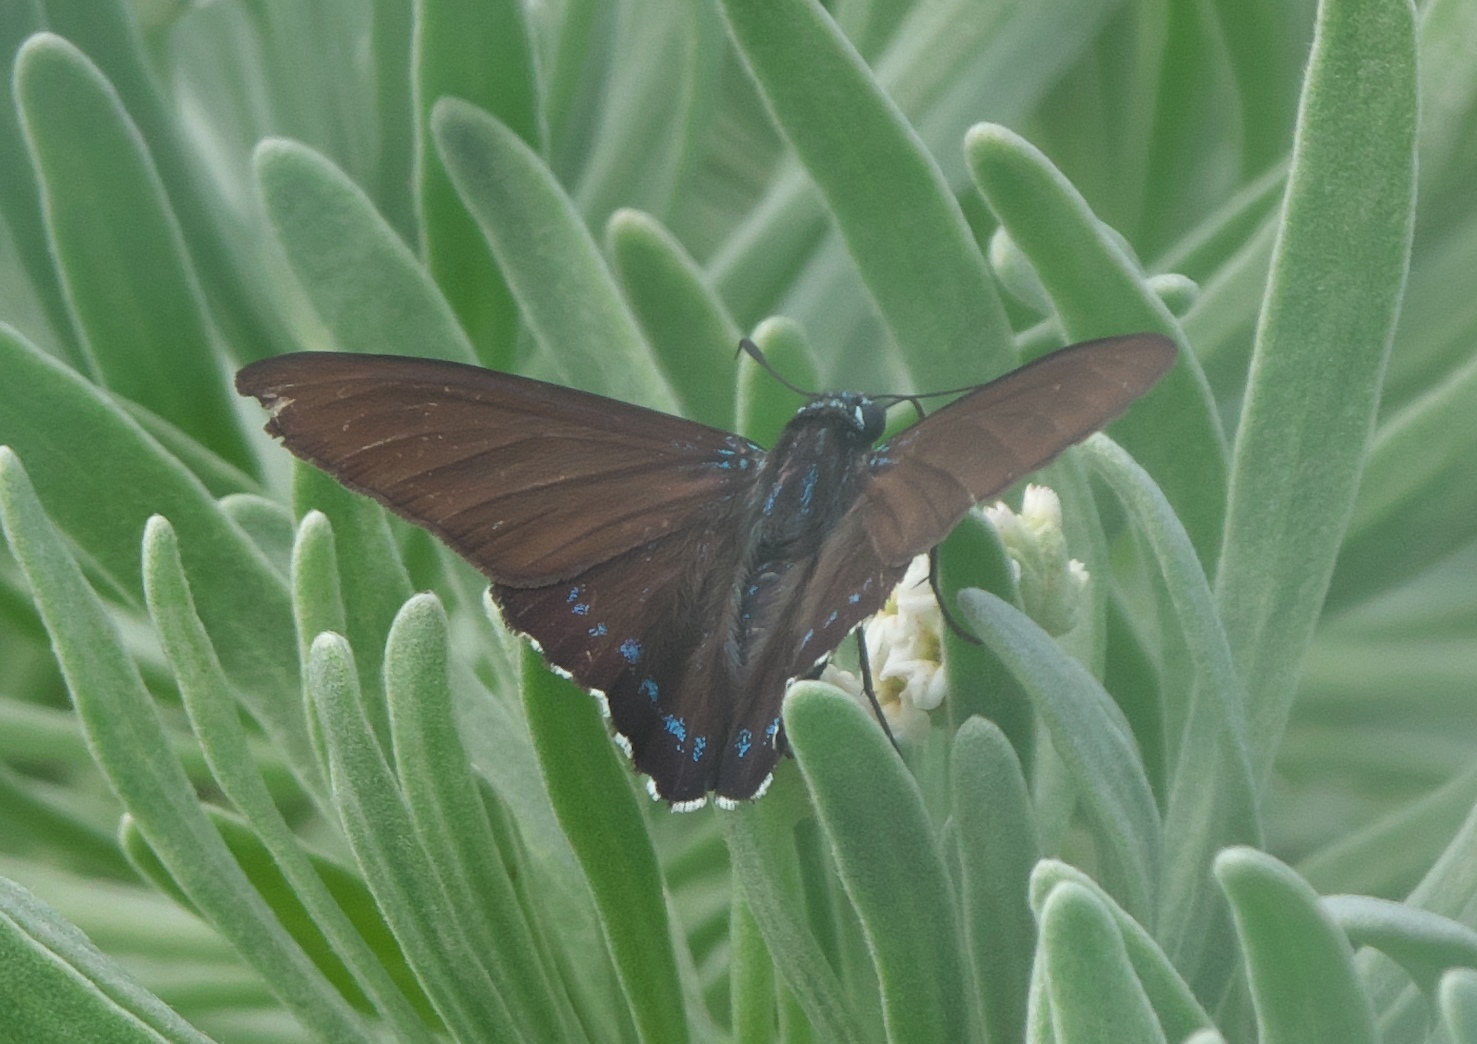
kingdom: Animalia
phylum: Arthropoda
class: Insecta
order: Lepidoptera
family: Hesperiidae
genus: Phocides
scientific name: Phocides pigmalion
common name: Mangrove skipper
